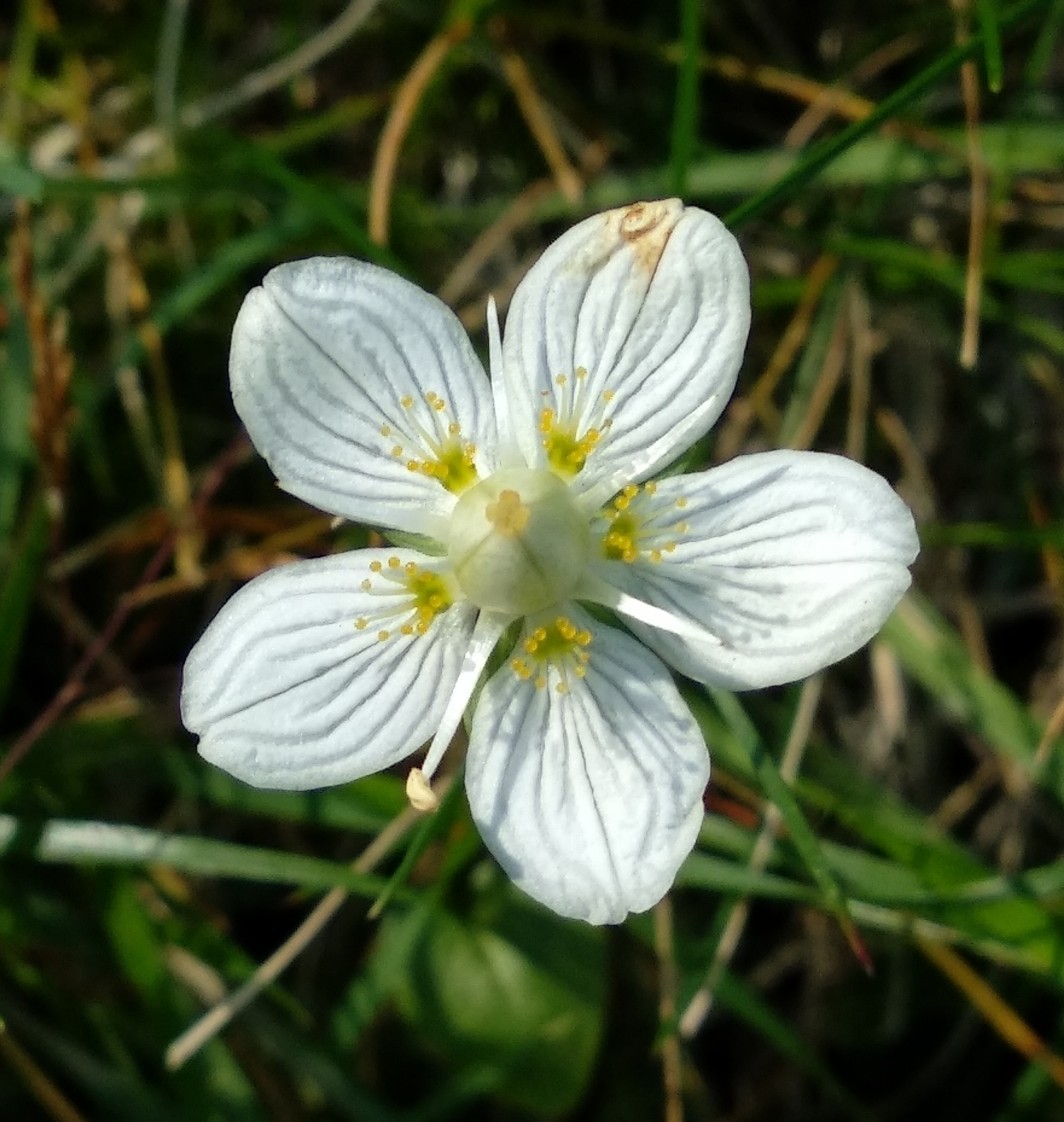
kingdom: Plantae
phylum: Tracheophyta
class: Magnoliopsida
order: Celastrales
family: Parnassiaceae
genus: Parnassia
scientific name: Parnassia palustris
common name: Grass-of-parnassus
